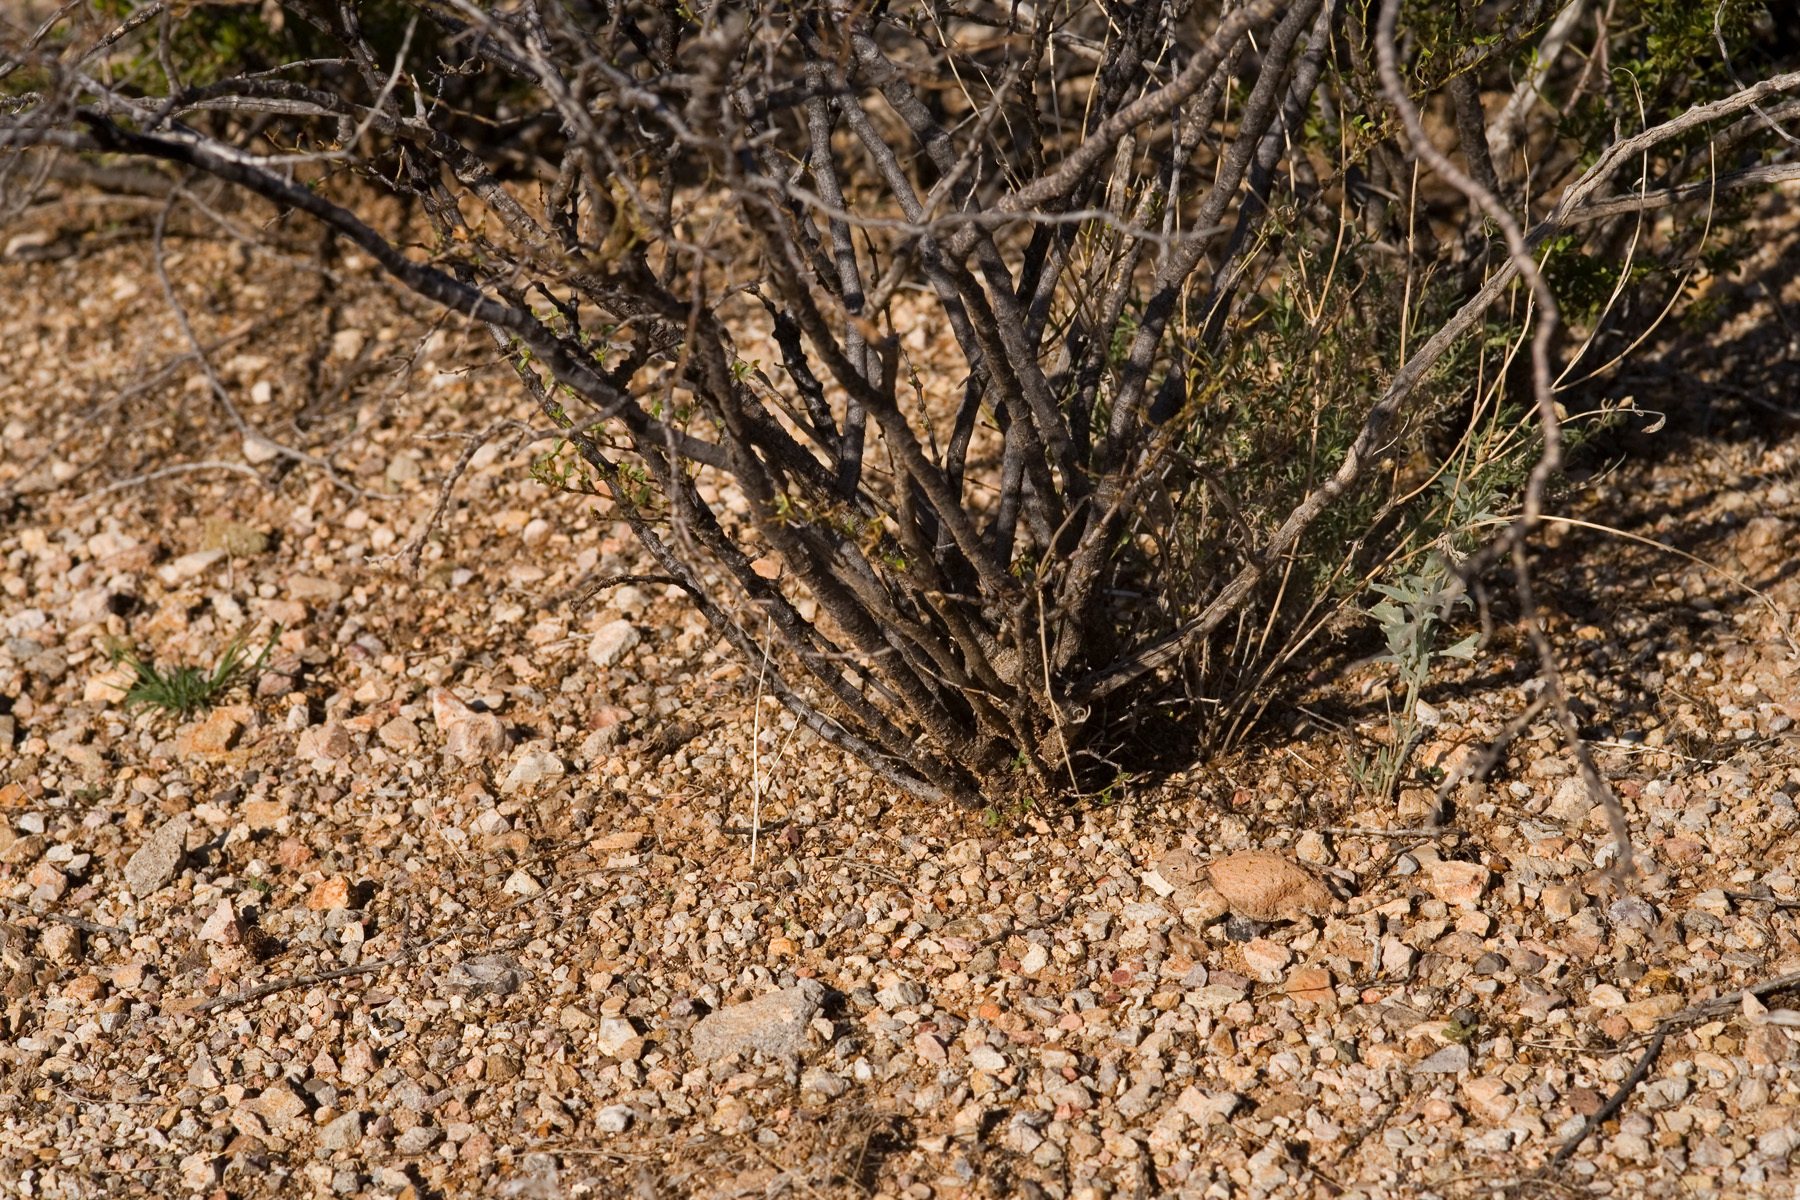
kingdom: Animalia
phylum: Chordata
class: Squamata
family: Phrynosomatidae
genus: Phrynosoma
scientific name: Phrynosoma modestum
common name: Roundtail horned lizard
